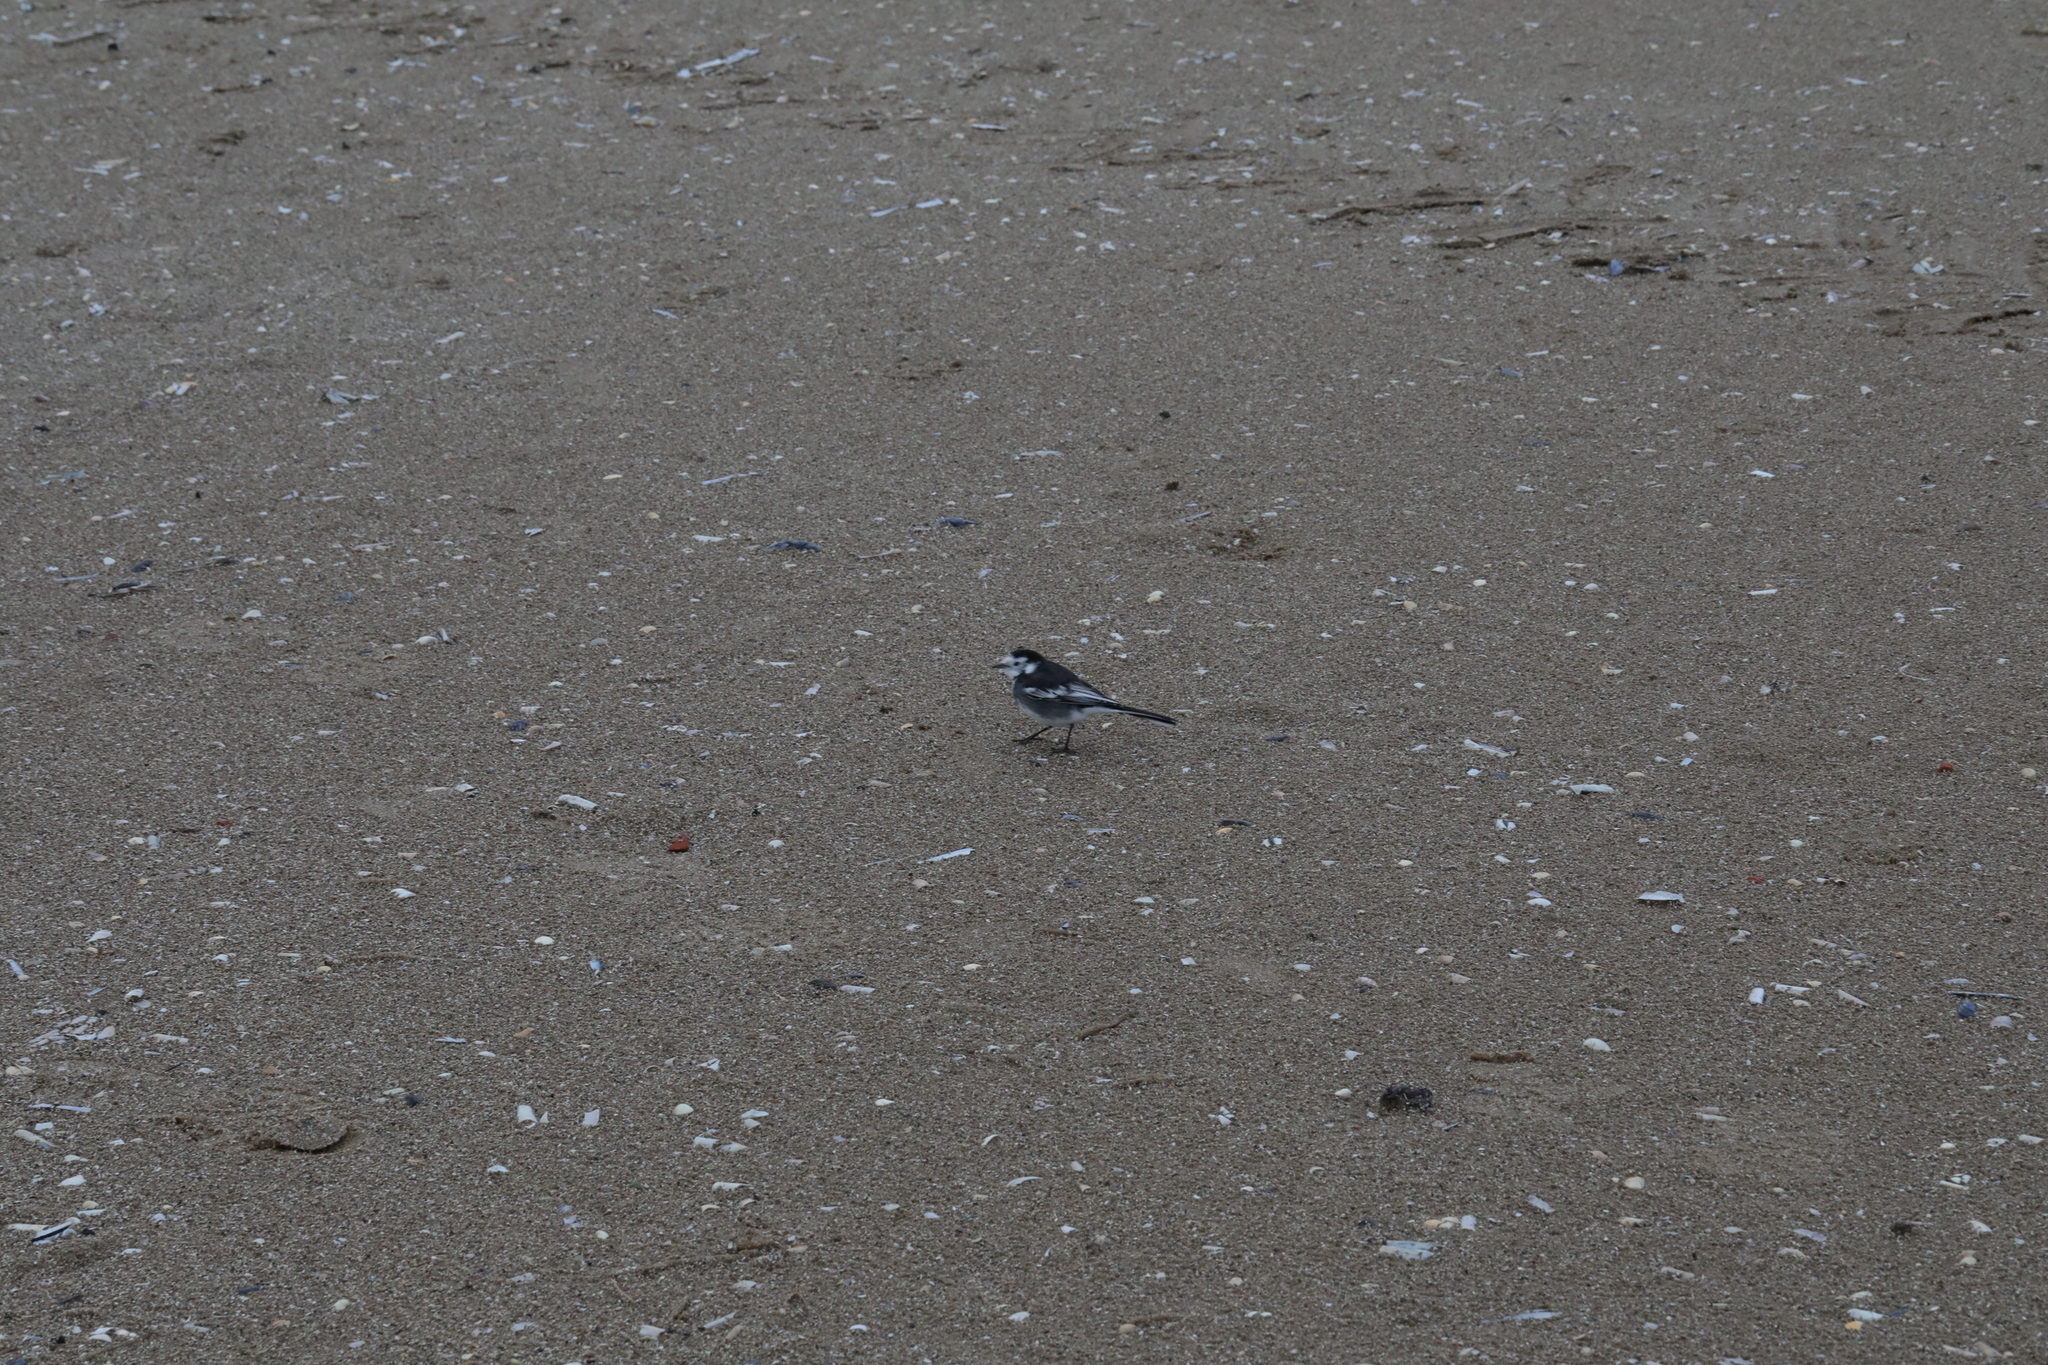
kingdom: Animalia
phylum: Chordata
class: Aves
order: Passeriformes
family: Motacillidae
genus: Motacilla
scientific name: Motacilla alba
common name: White wagtail
